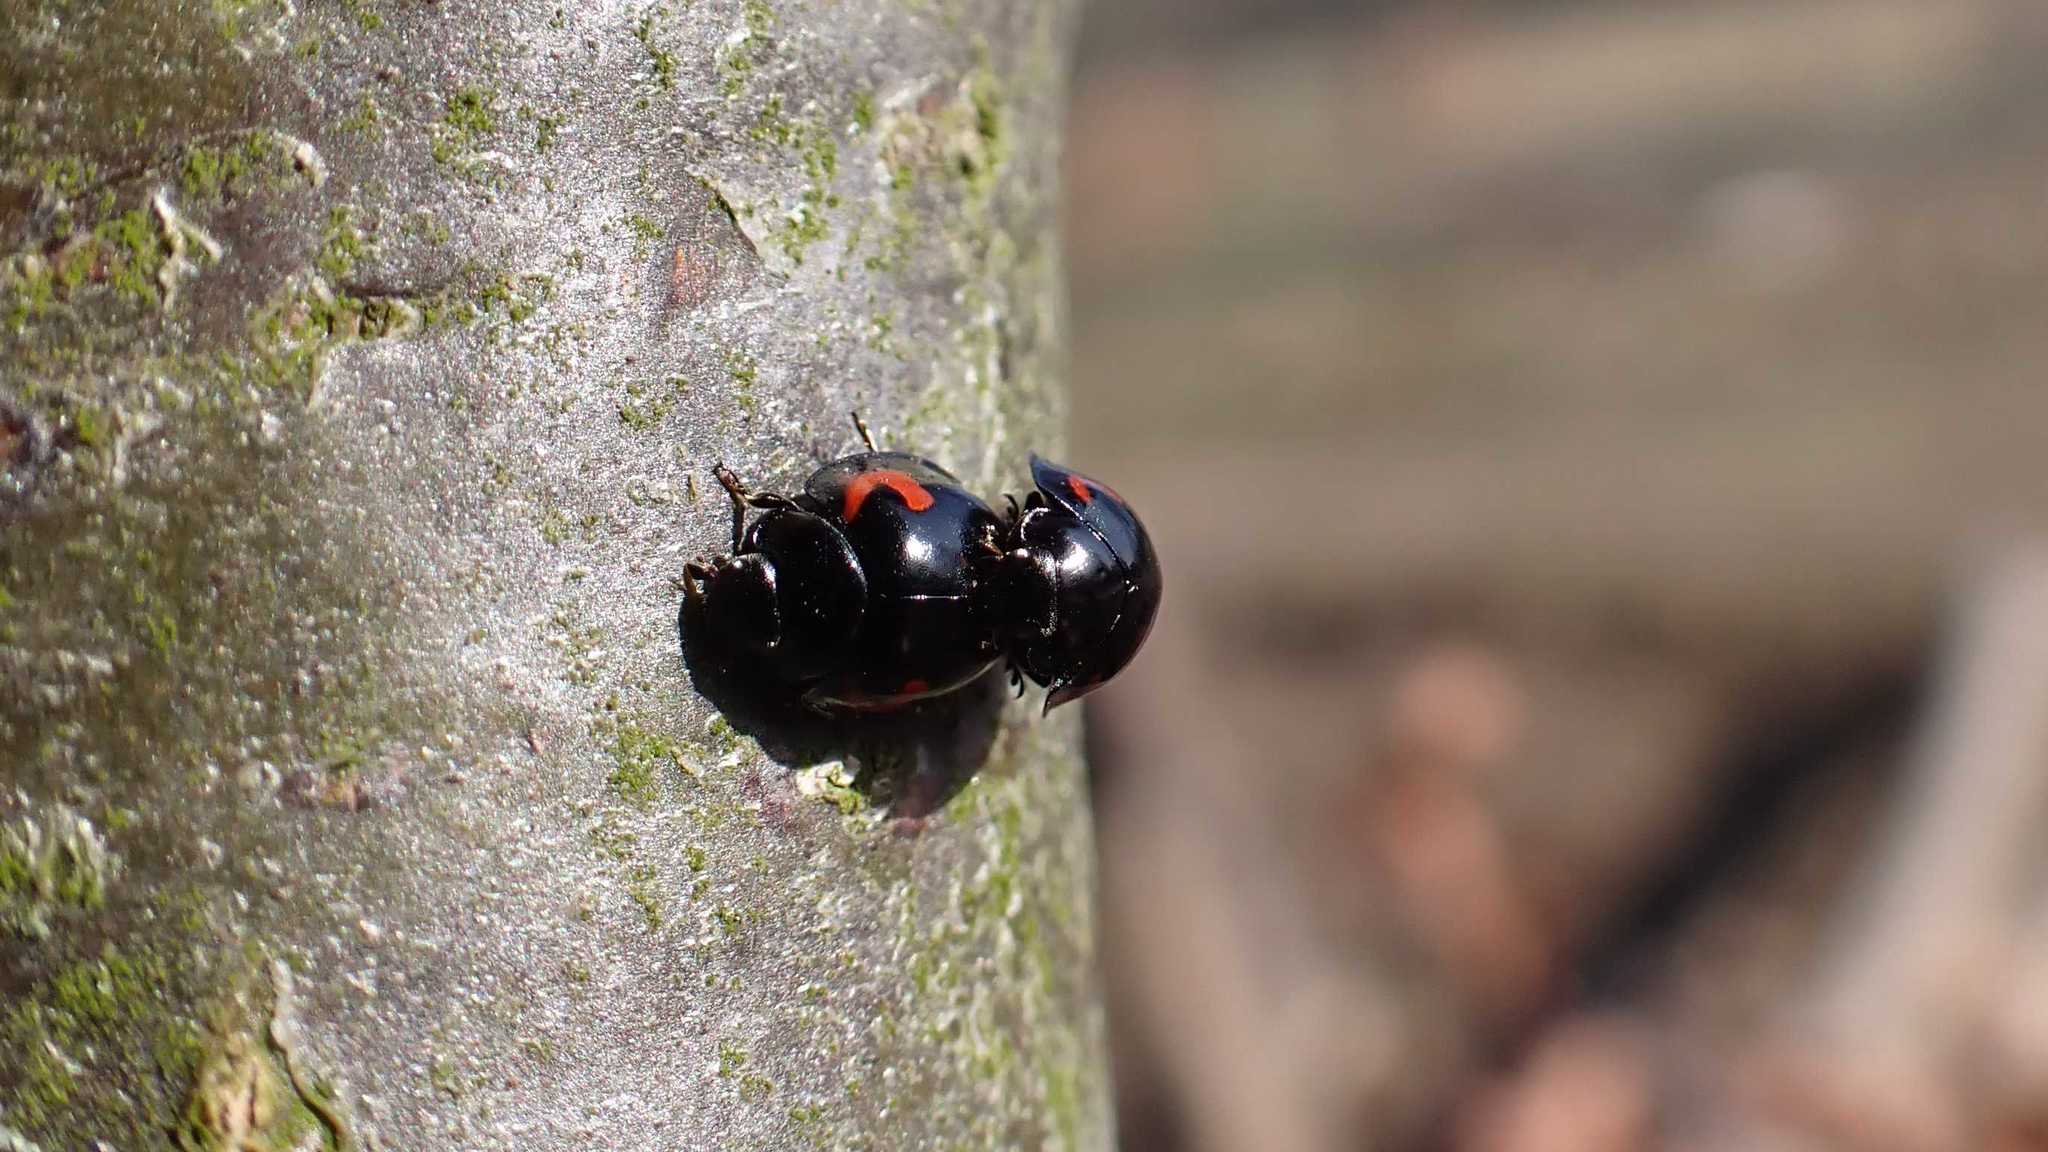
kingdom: Animalia
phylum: Arthropoda
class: Insecta
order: Coleoptera
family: Coccinellidae
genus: Brumus
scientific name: Brumus quadripustulatus
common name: Ladybird beetle
